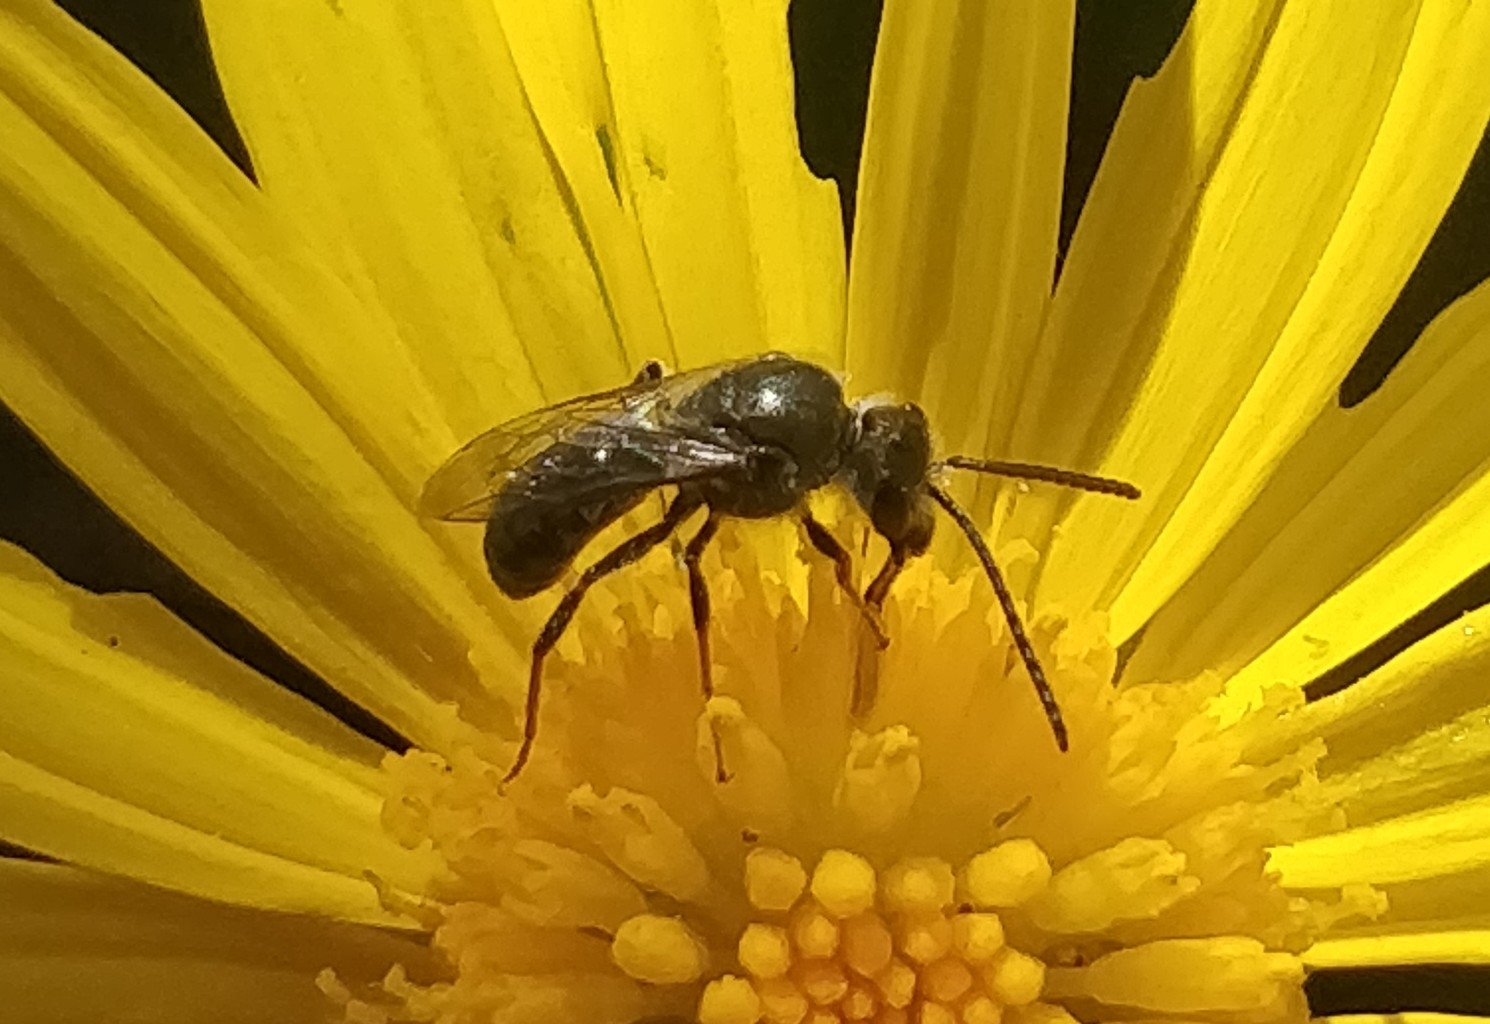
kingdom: Animalia
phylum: Arthropoda
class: Insecta
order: Hymenoptera
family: Halictidae
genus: Lasioglossum
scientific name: Lasioglossum viride
